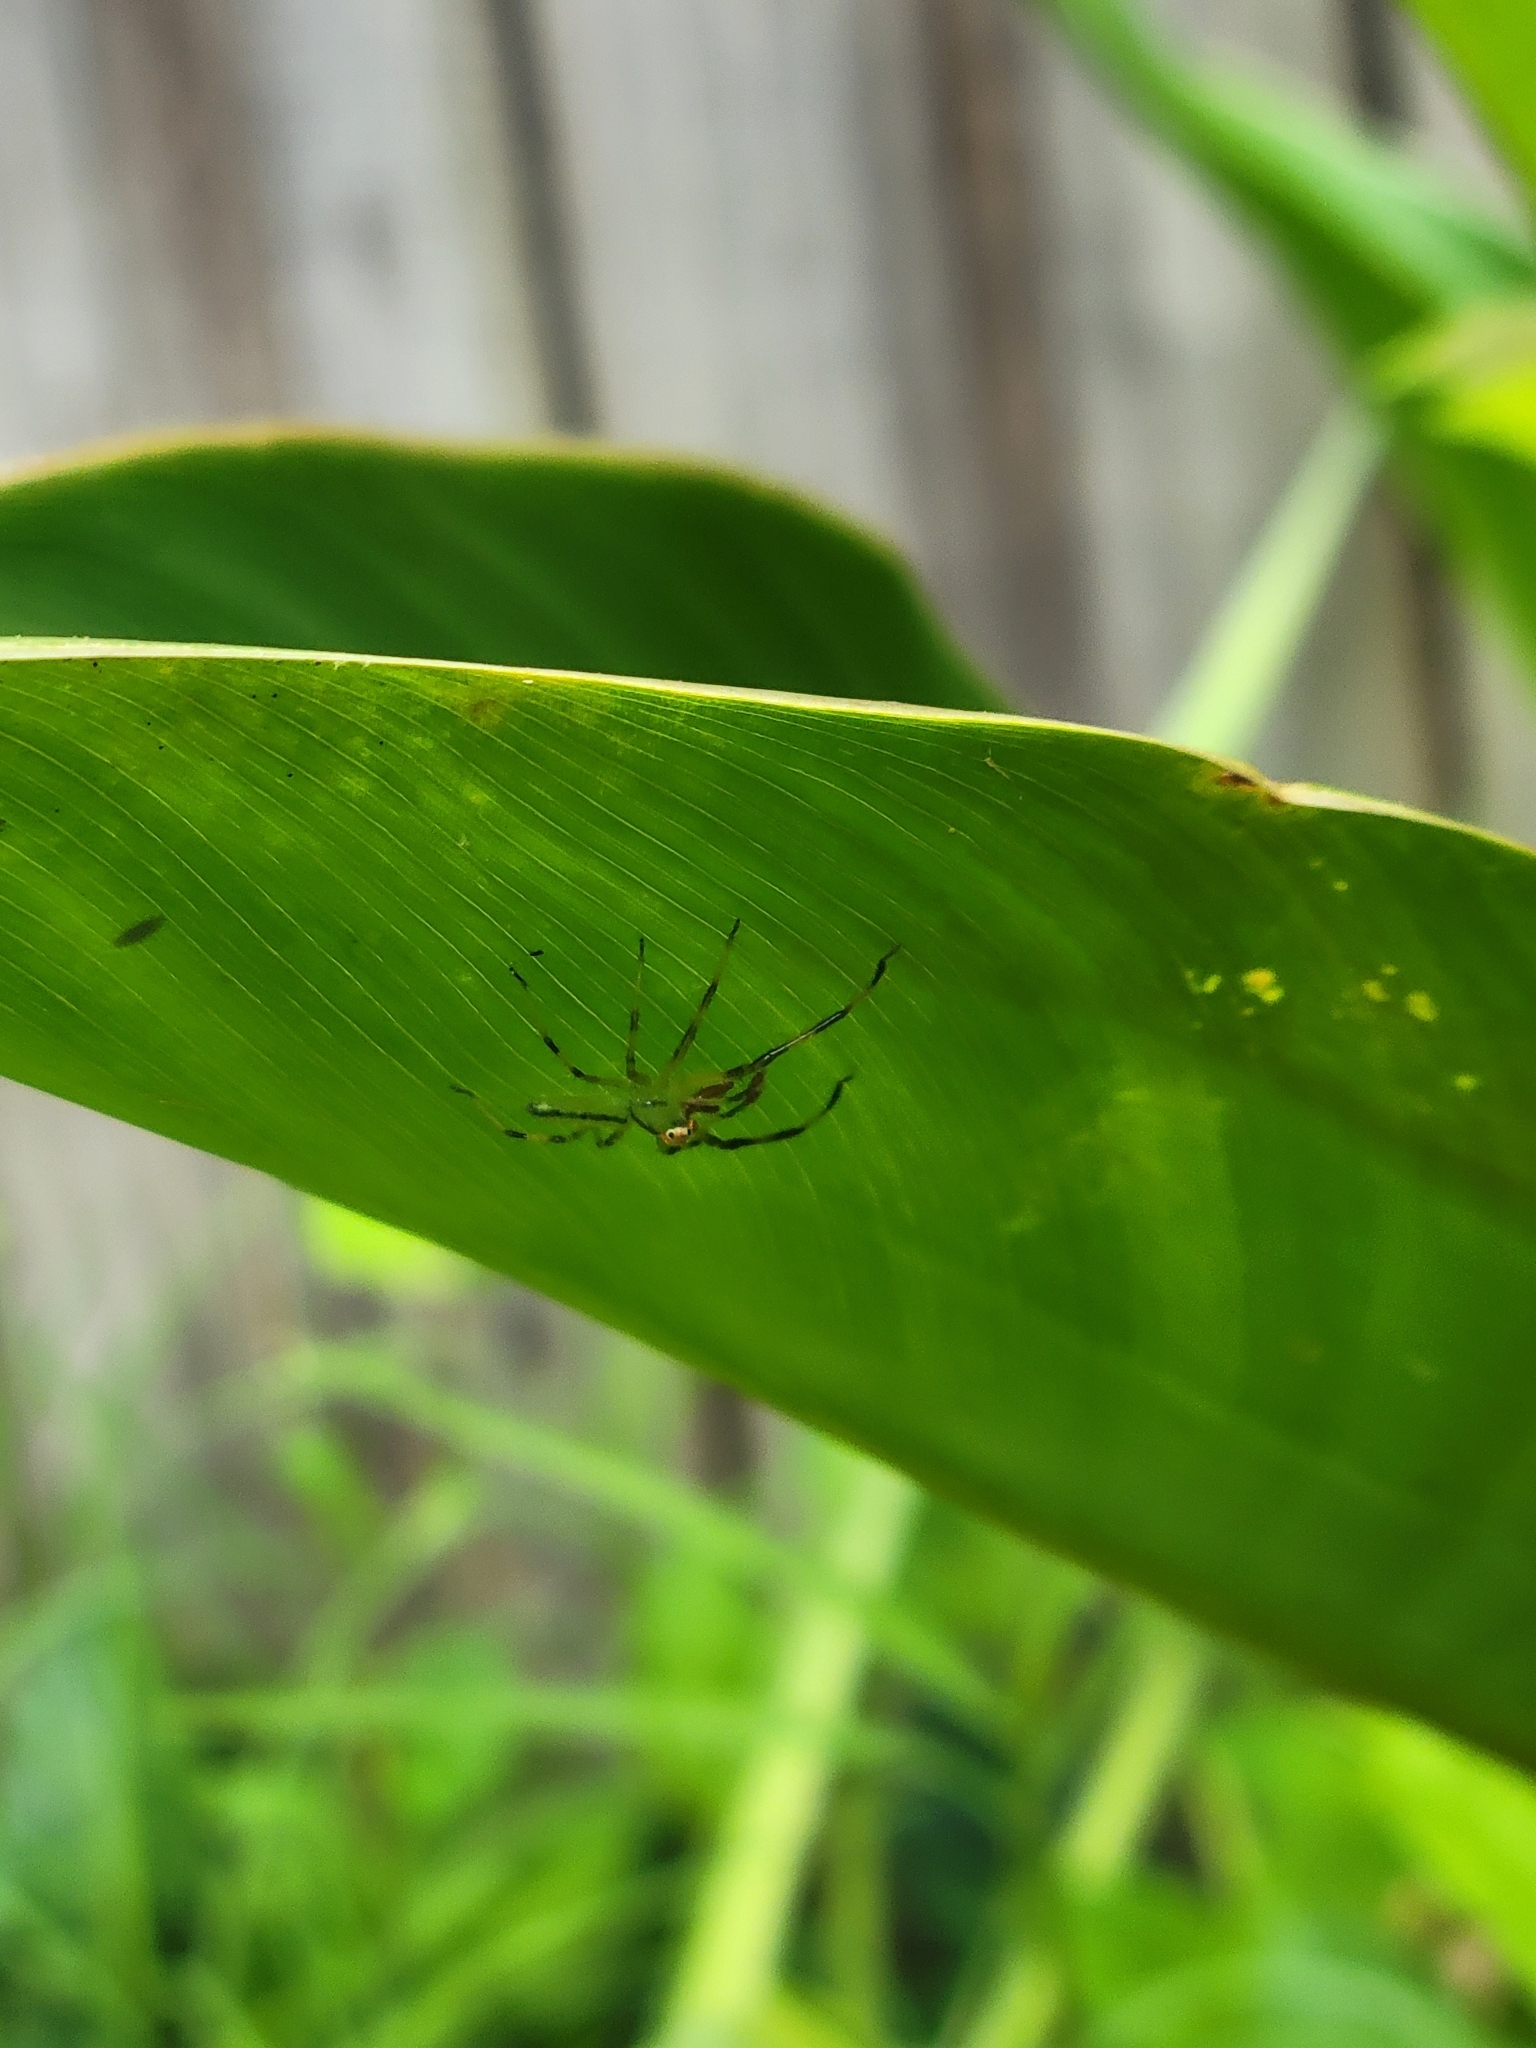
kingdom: Animalia
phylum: Arthropoda
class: Arachnida
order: Araneae
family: Salticidae
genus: Lyssomanes
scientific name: Lyssomanes viridis
